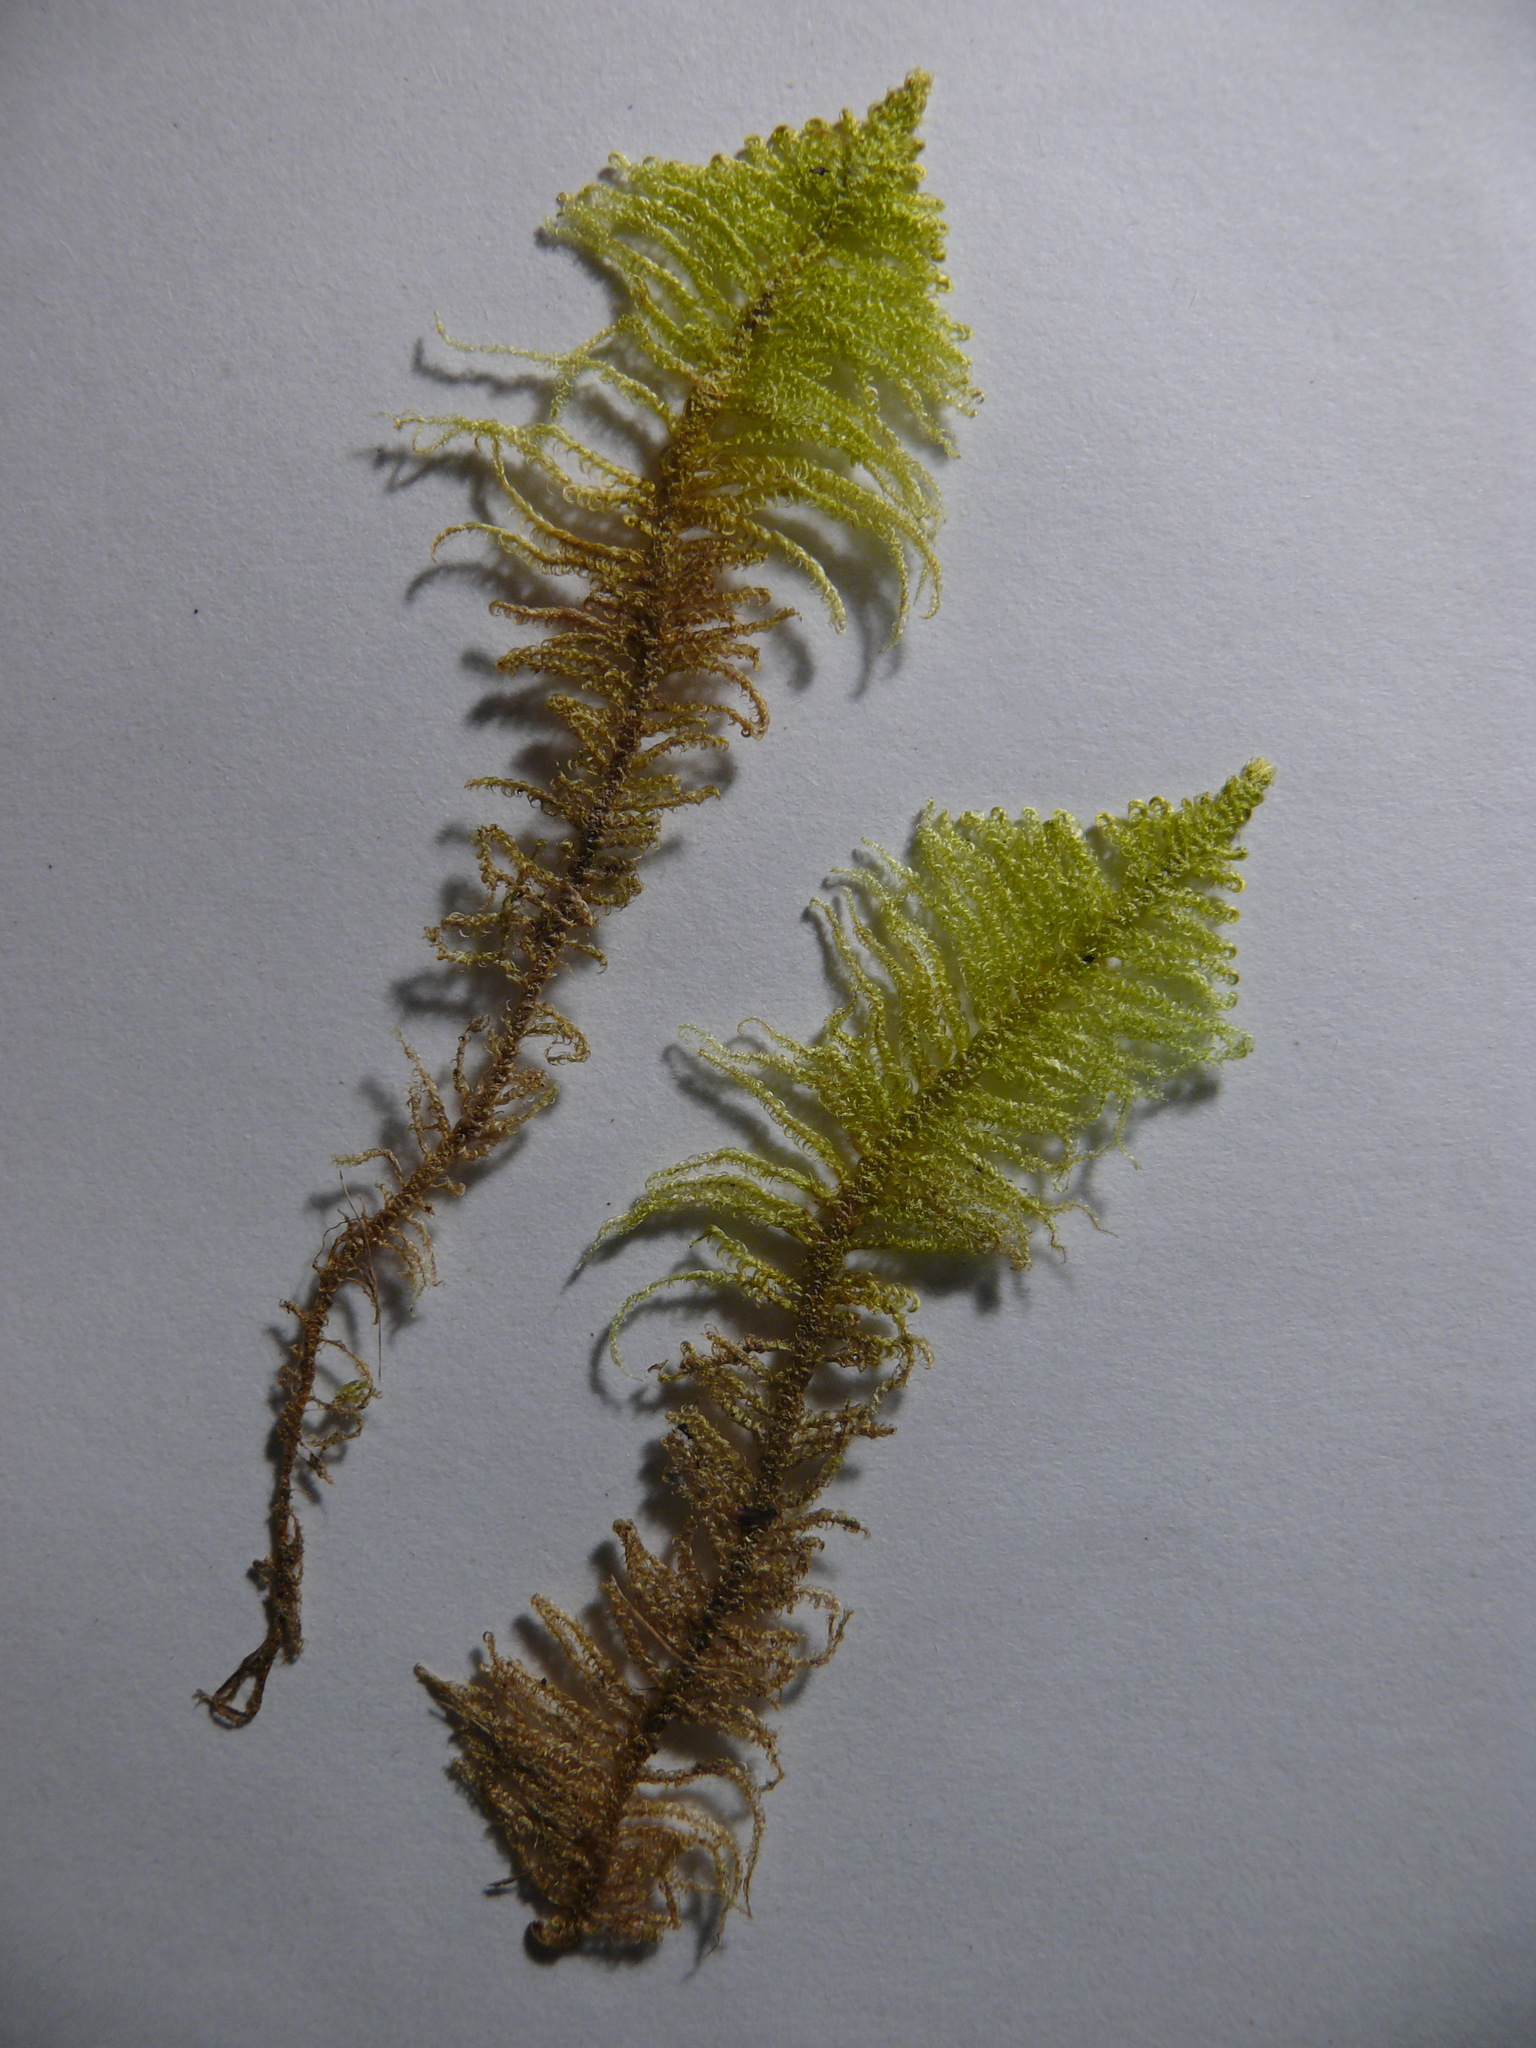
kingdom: Plantae
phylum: Bryophyta
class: Bryopsida
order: Hypnales
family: Pylaisiaceae
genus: Ptilium
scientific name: Ptilium crista-castrensis
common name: Knight's plume moss
